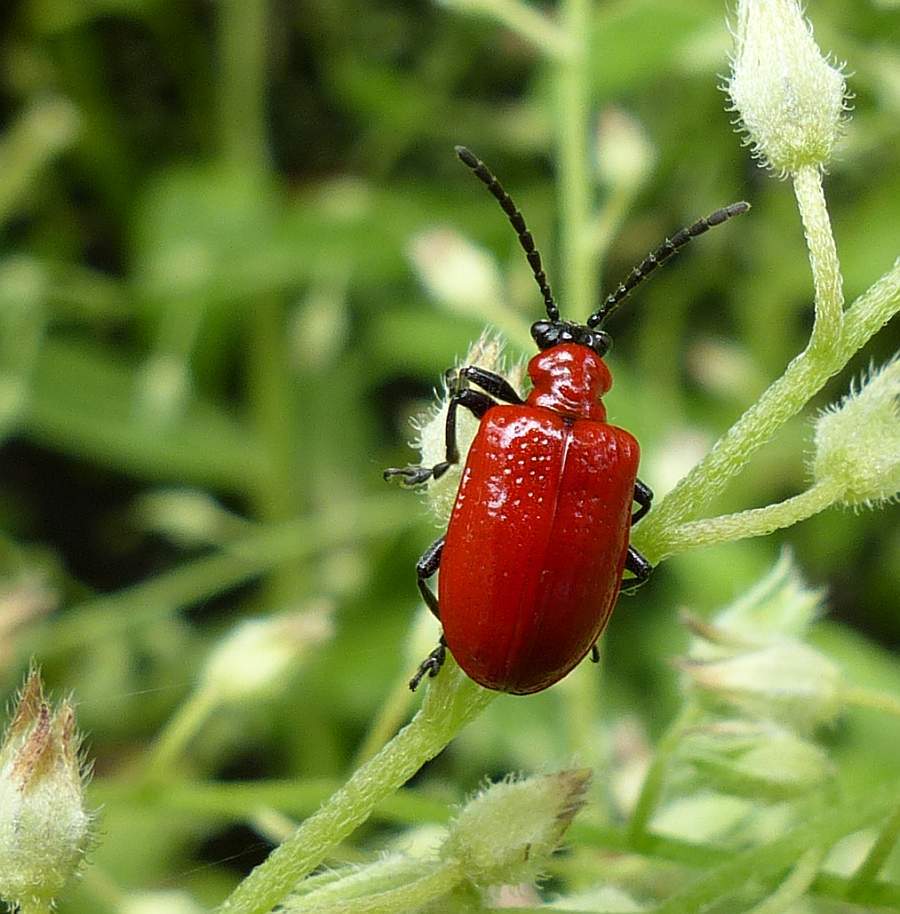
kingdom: Animalia
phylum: Arthropoda
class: Insecta
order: Coleoptera
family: Chrysomelidae
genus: Lilioceris
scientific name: Lilioceris lilii
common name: Lily beetle
